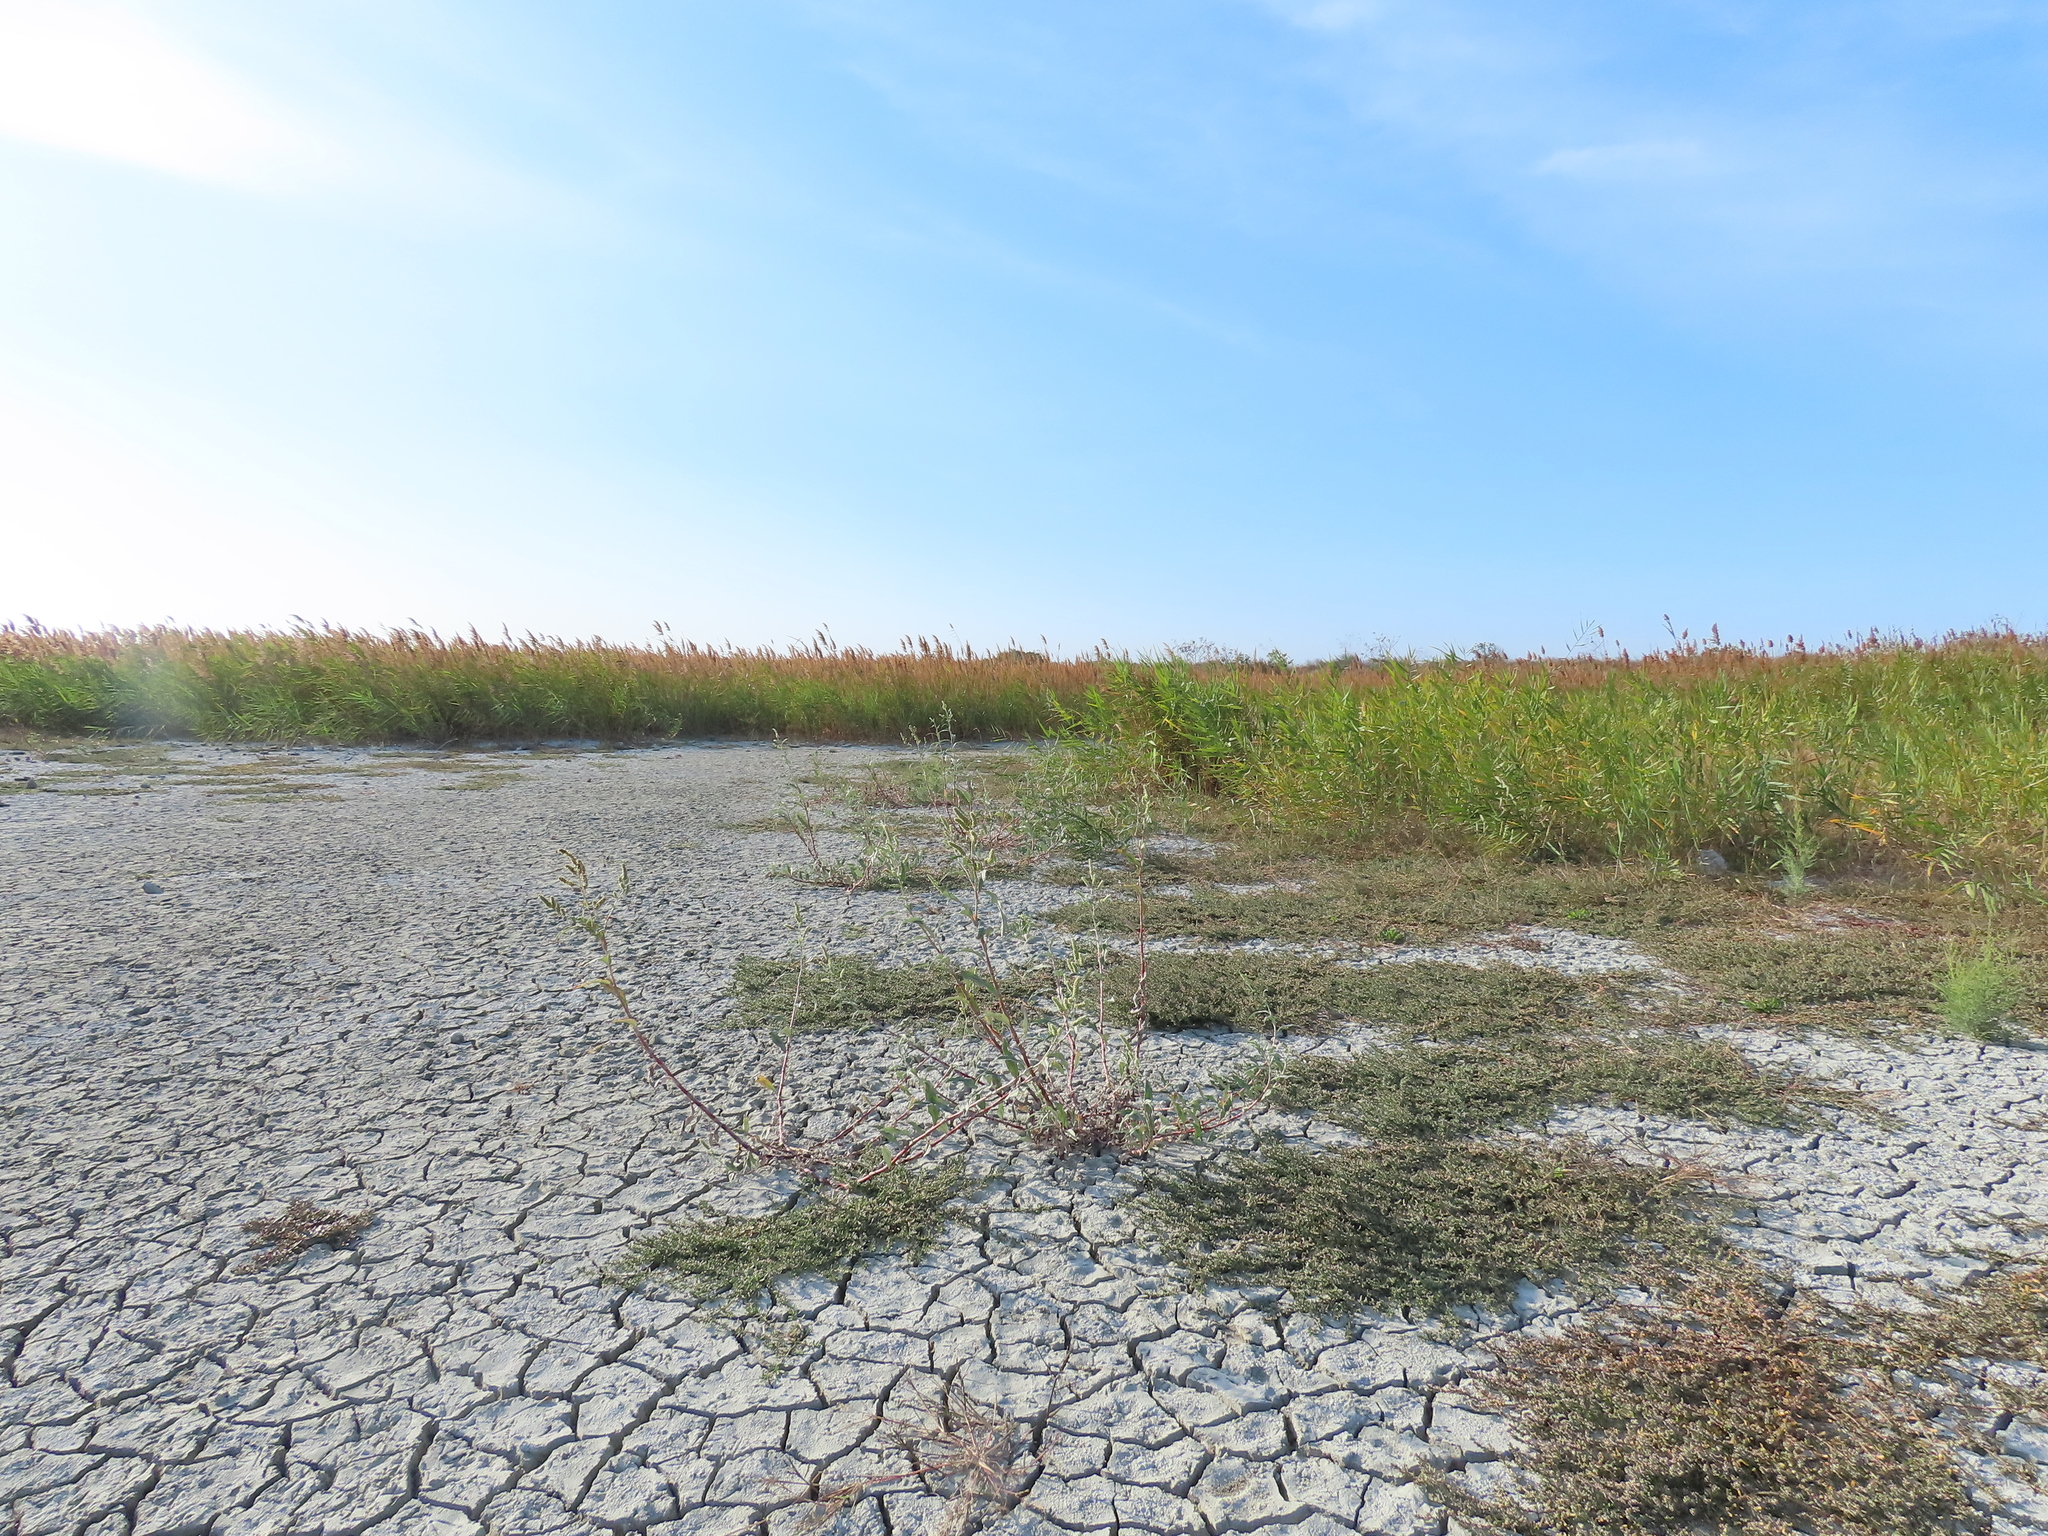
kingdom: Plantae
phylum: Tracheophyta
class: Magnoliopsida
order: Caryophyllales
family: Polygonaceae
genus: Persicaria
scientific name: Persicaria lanata
